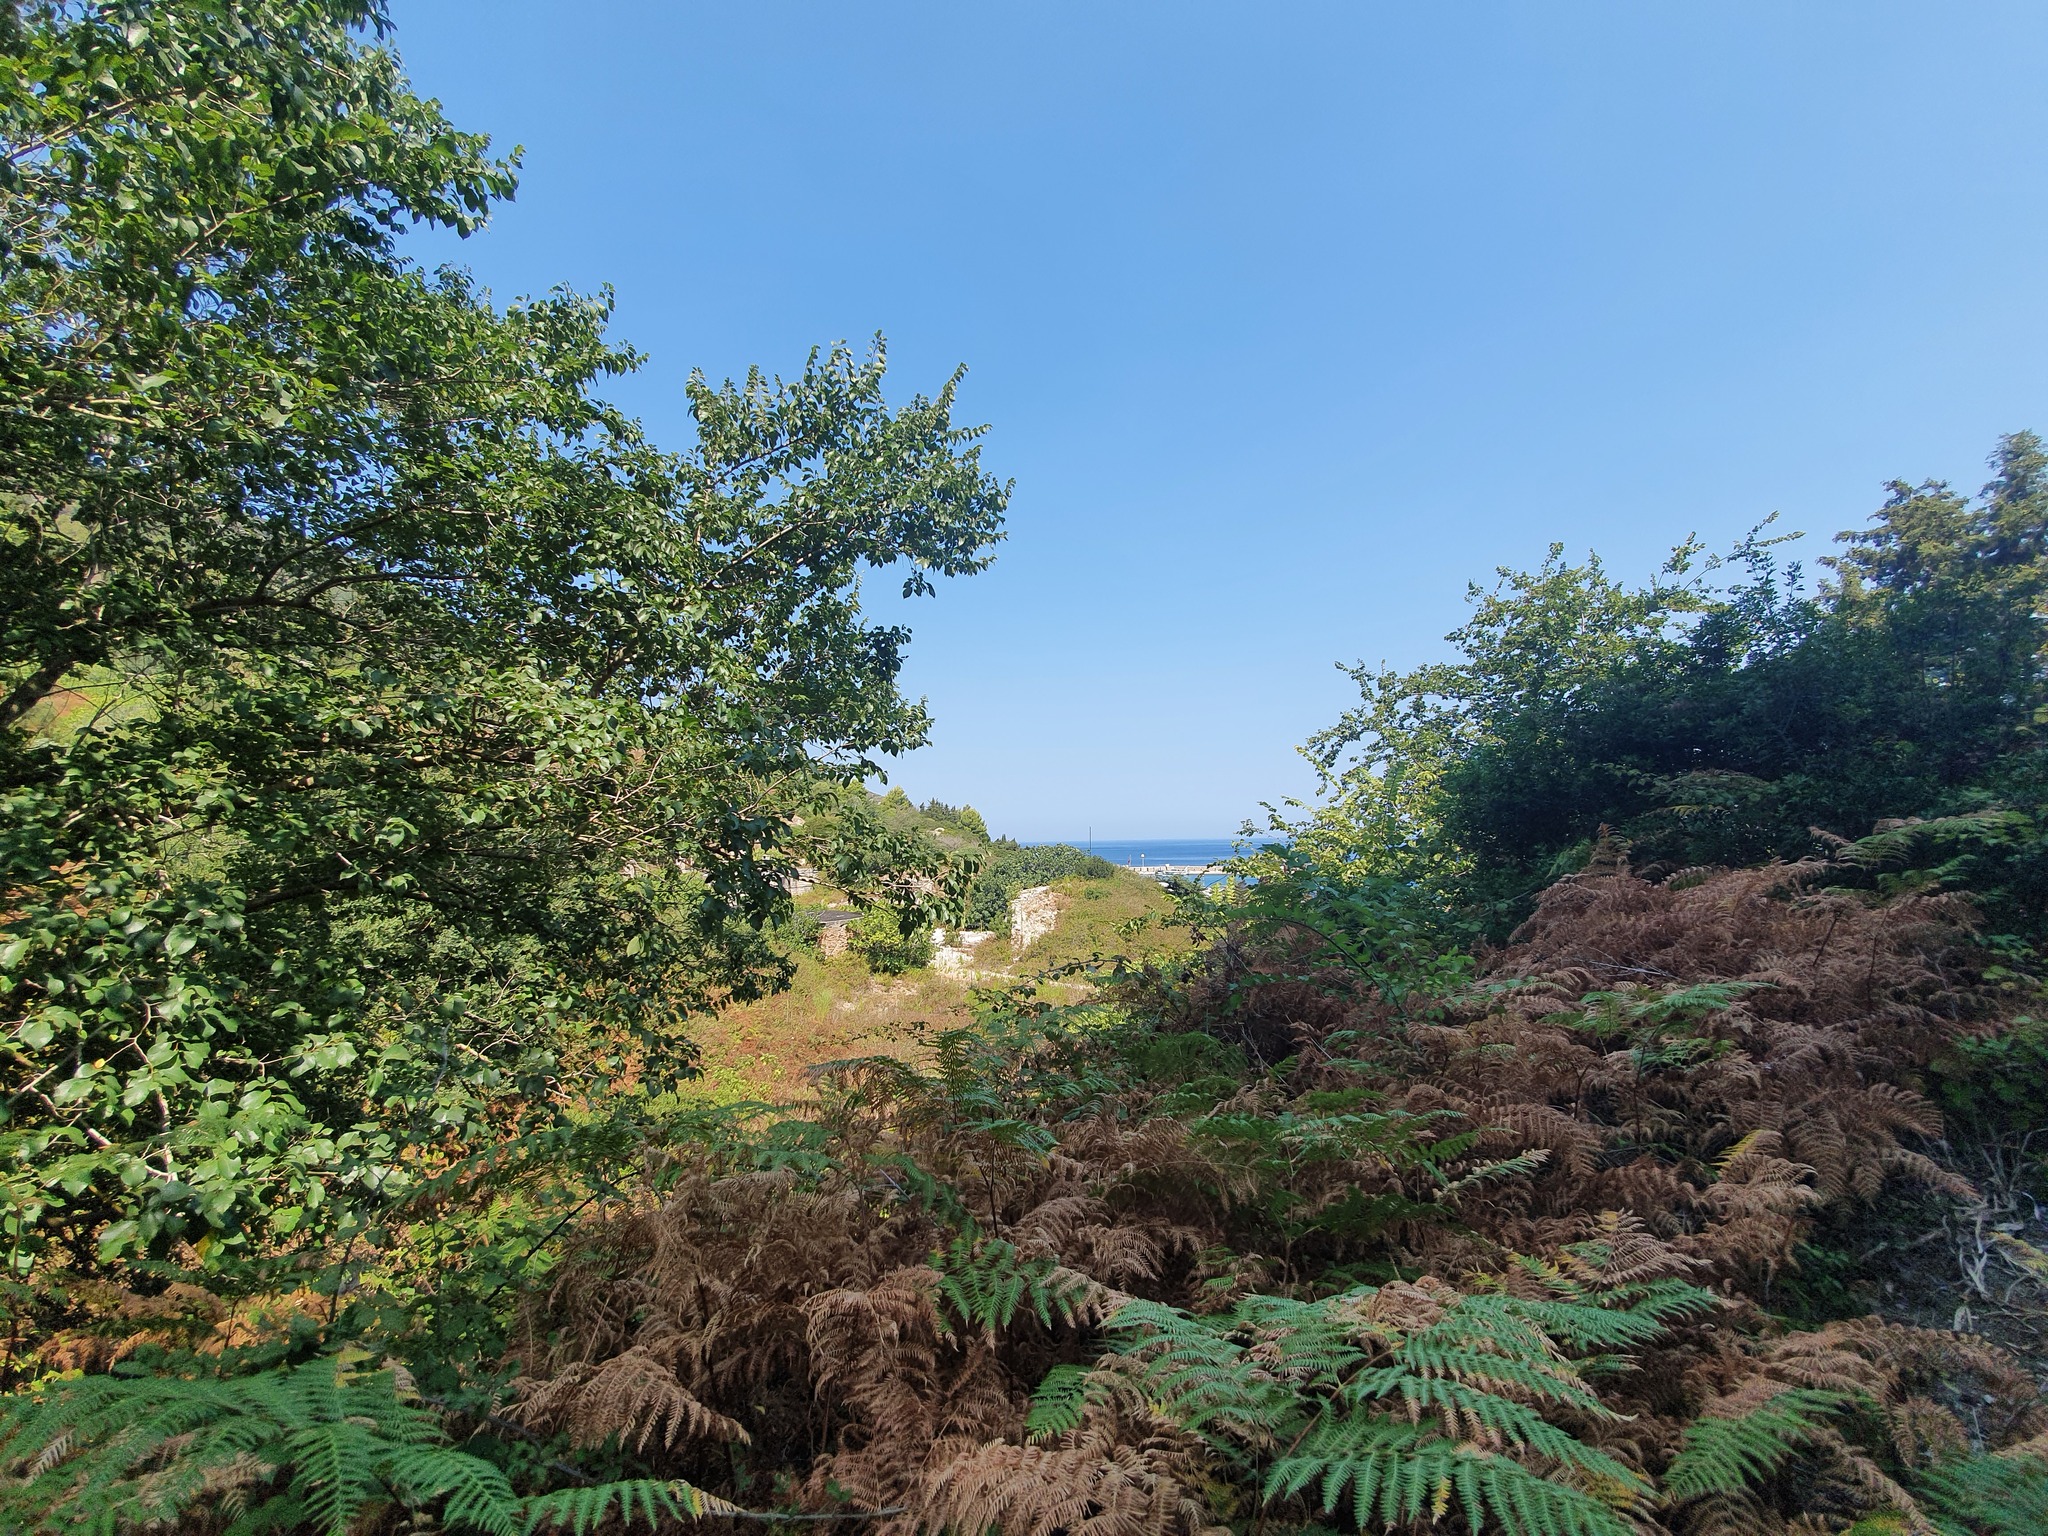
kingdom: Plantae
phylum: Tracheophyta
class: Polypodiopsida
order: Polypodiales
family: Dennstaedtiaceae
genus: Pteridium
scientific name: Pteridium aquilinum
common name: Bracken
